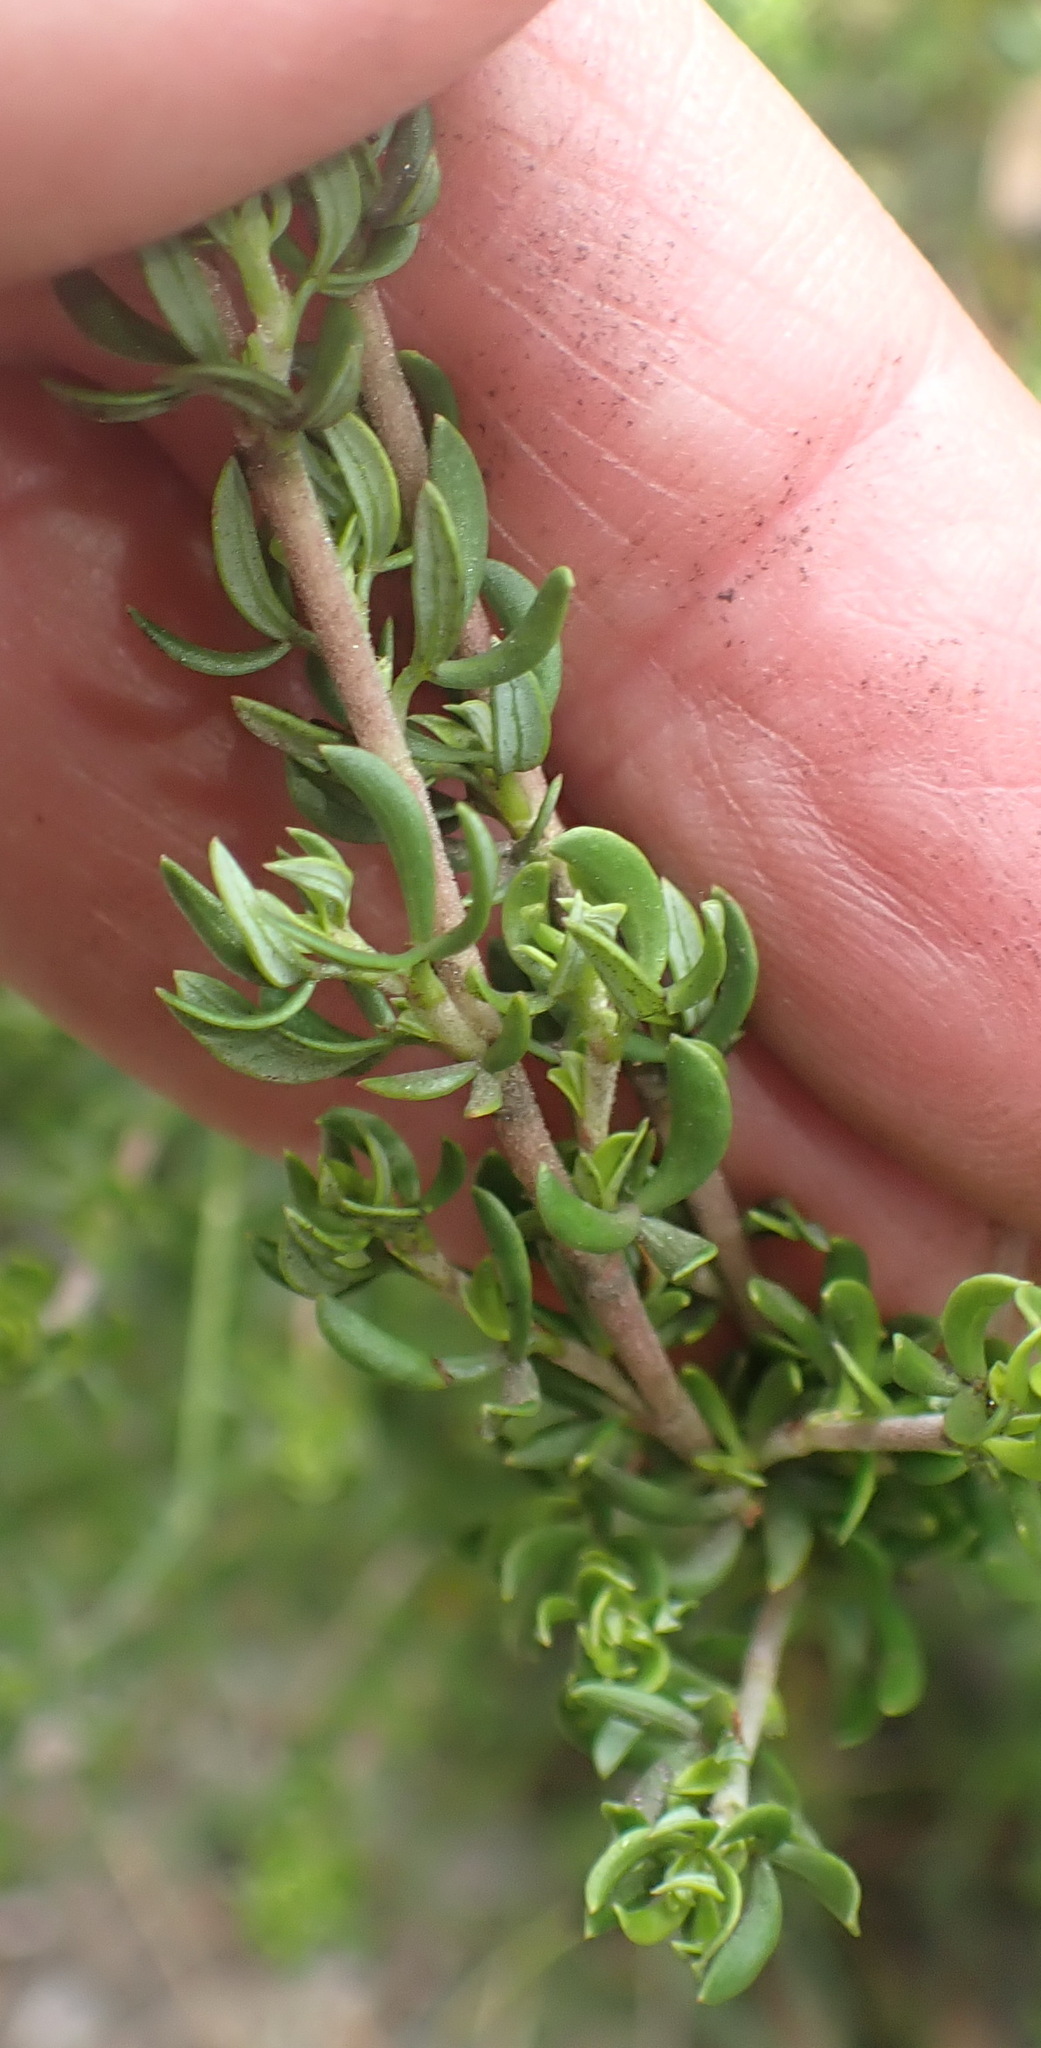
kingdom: Plantae
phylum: Tracheophyta
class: Magnoliopsida
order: Rosales
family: Rosaceae
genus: Cliffortia
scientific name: Cliffortia falcata
